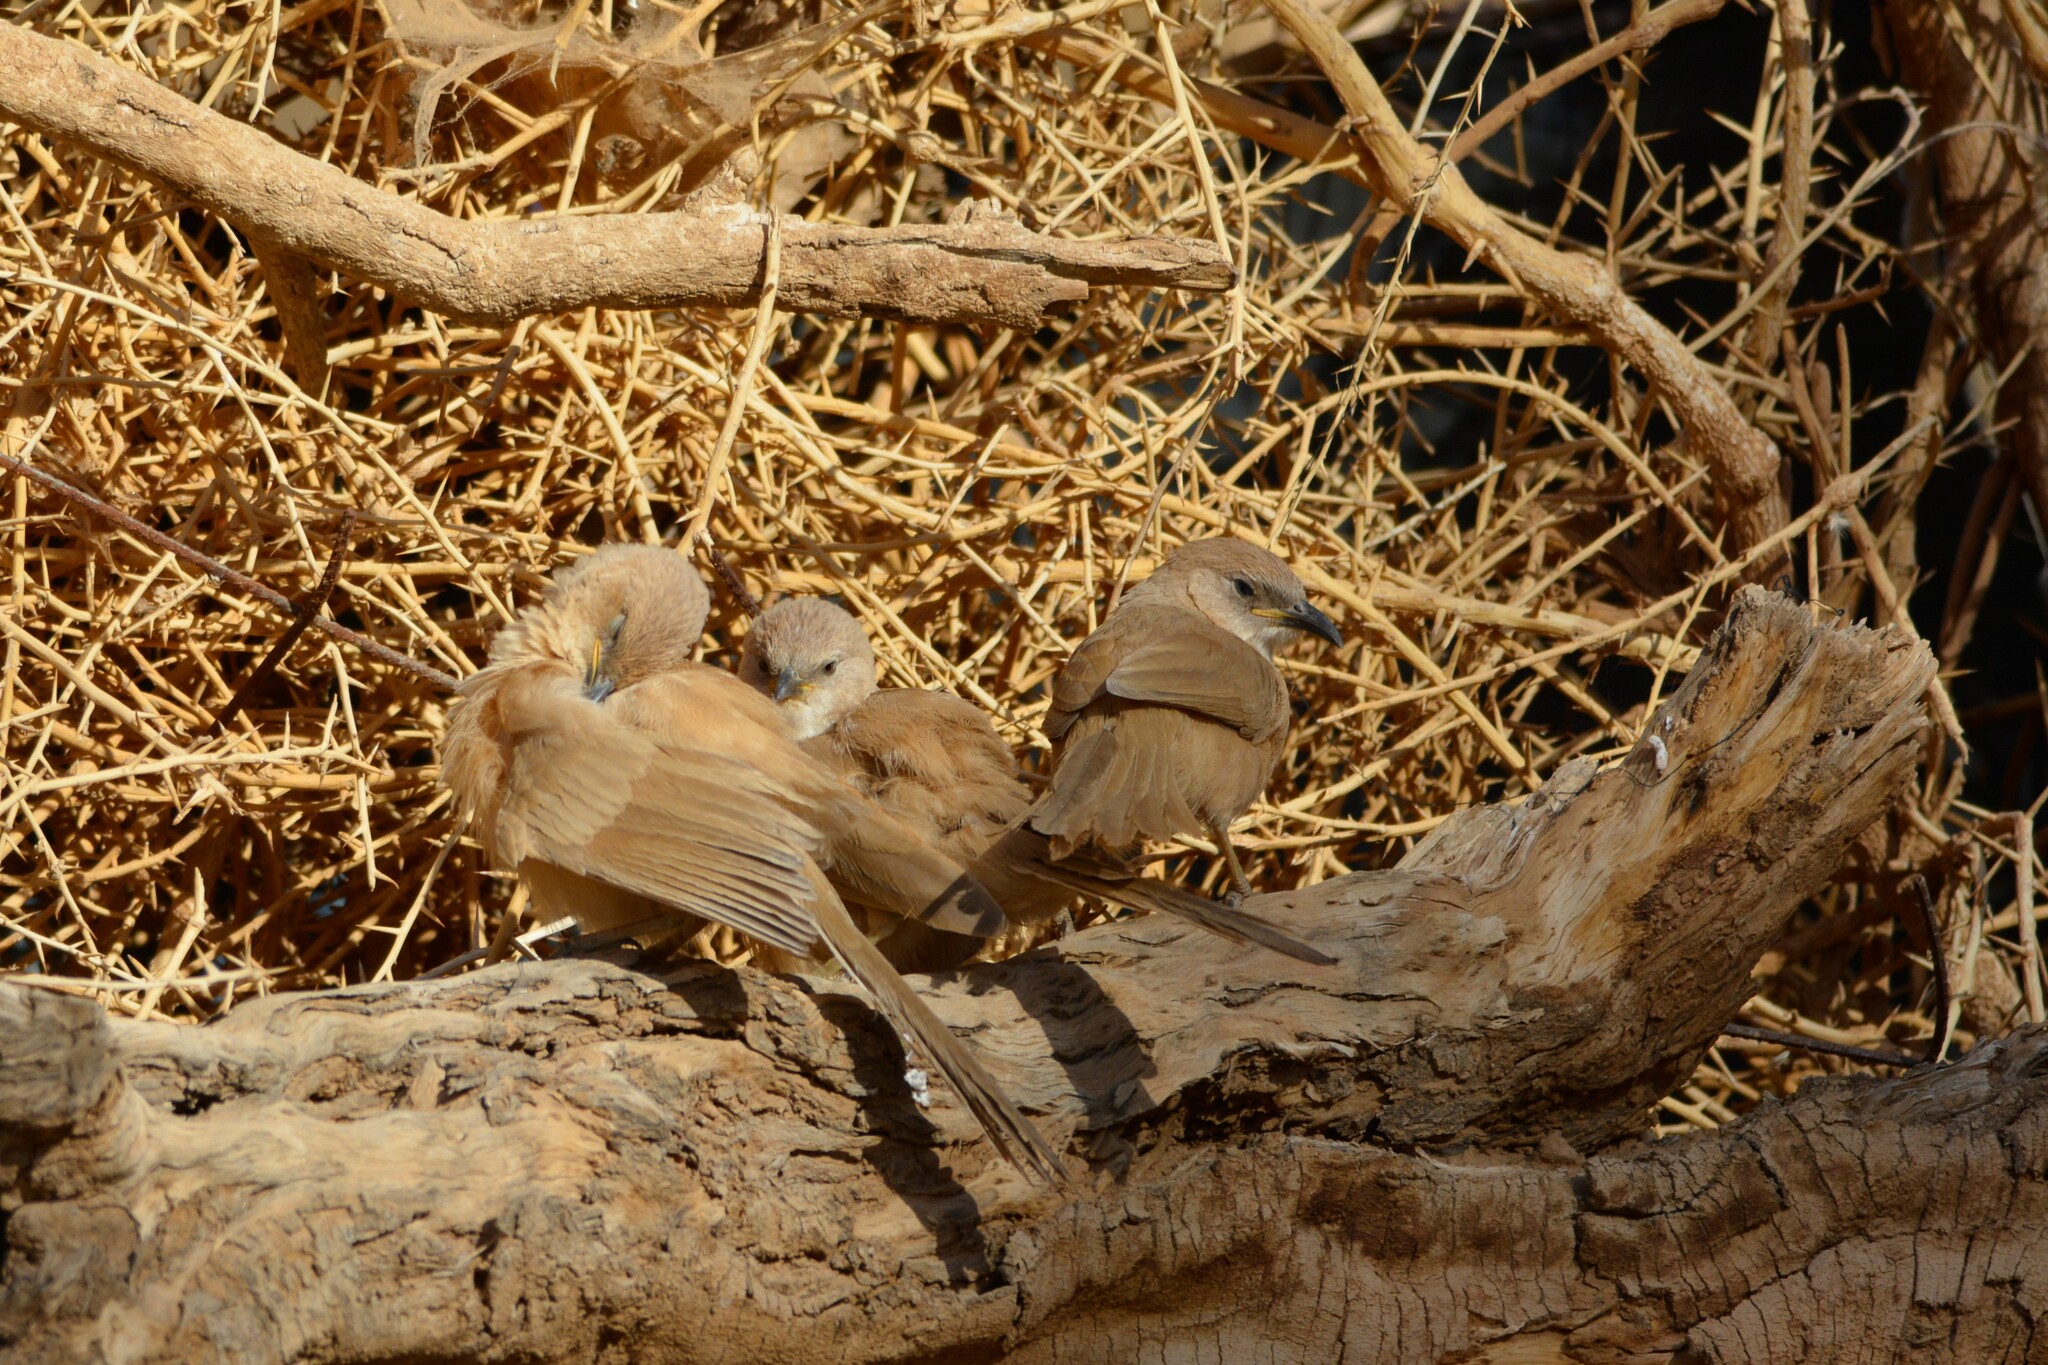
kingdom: Animalia
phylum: Chordata
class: Aves
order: Passeriformes
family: Leiothrichidae
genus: Turdoides
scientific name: Turdoides fulva
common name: Fulvous babbler
